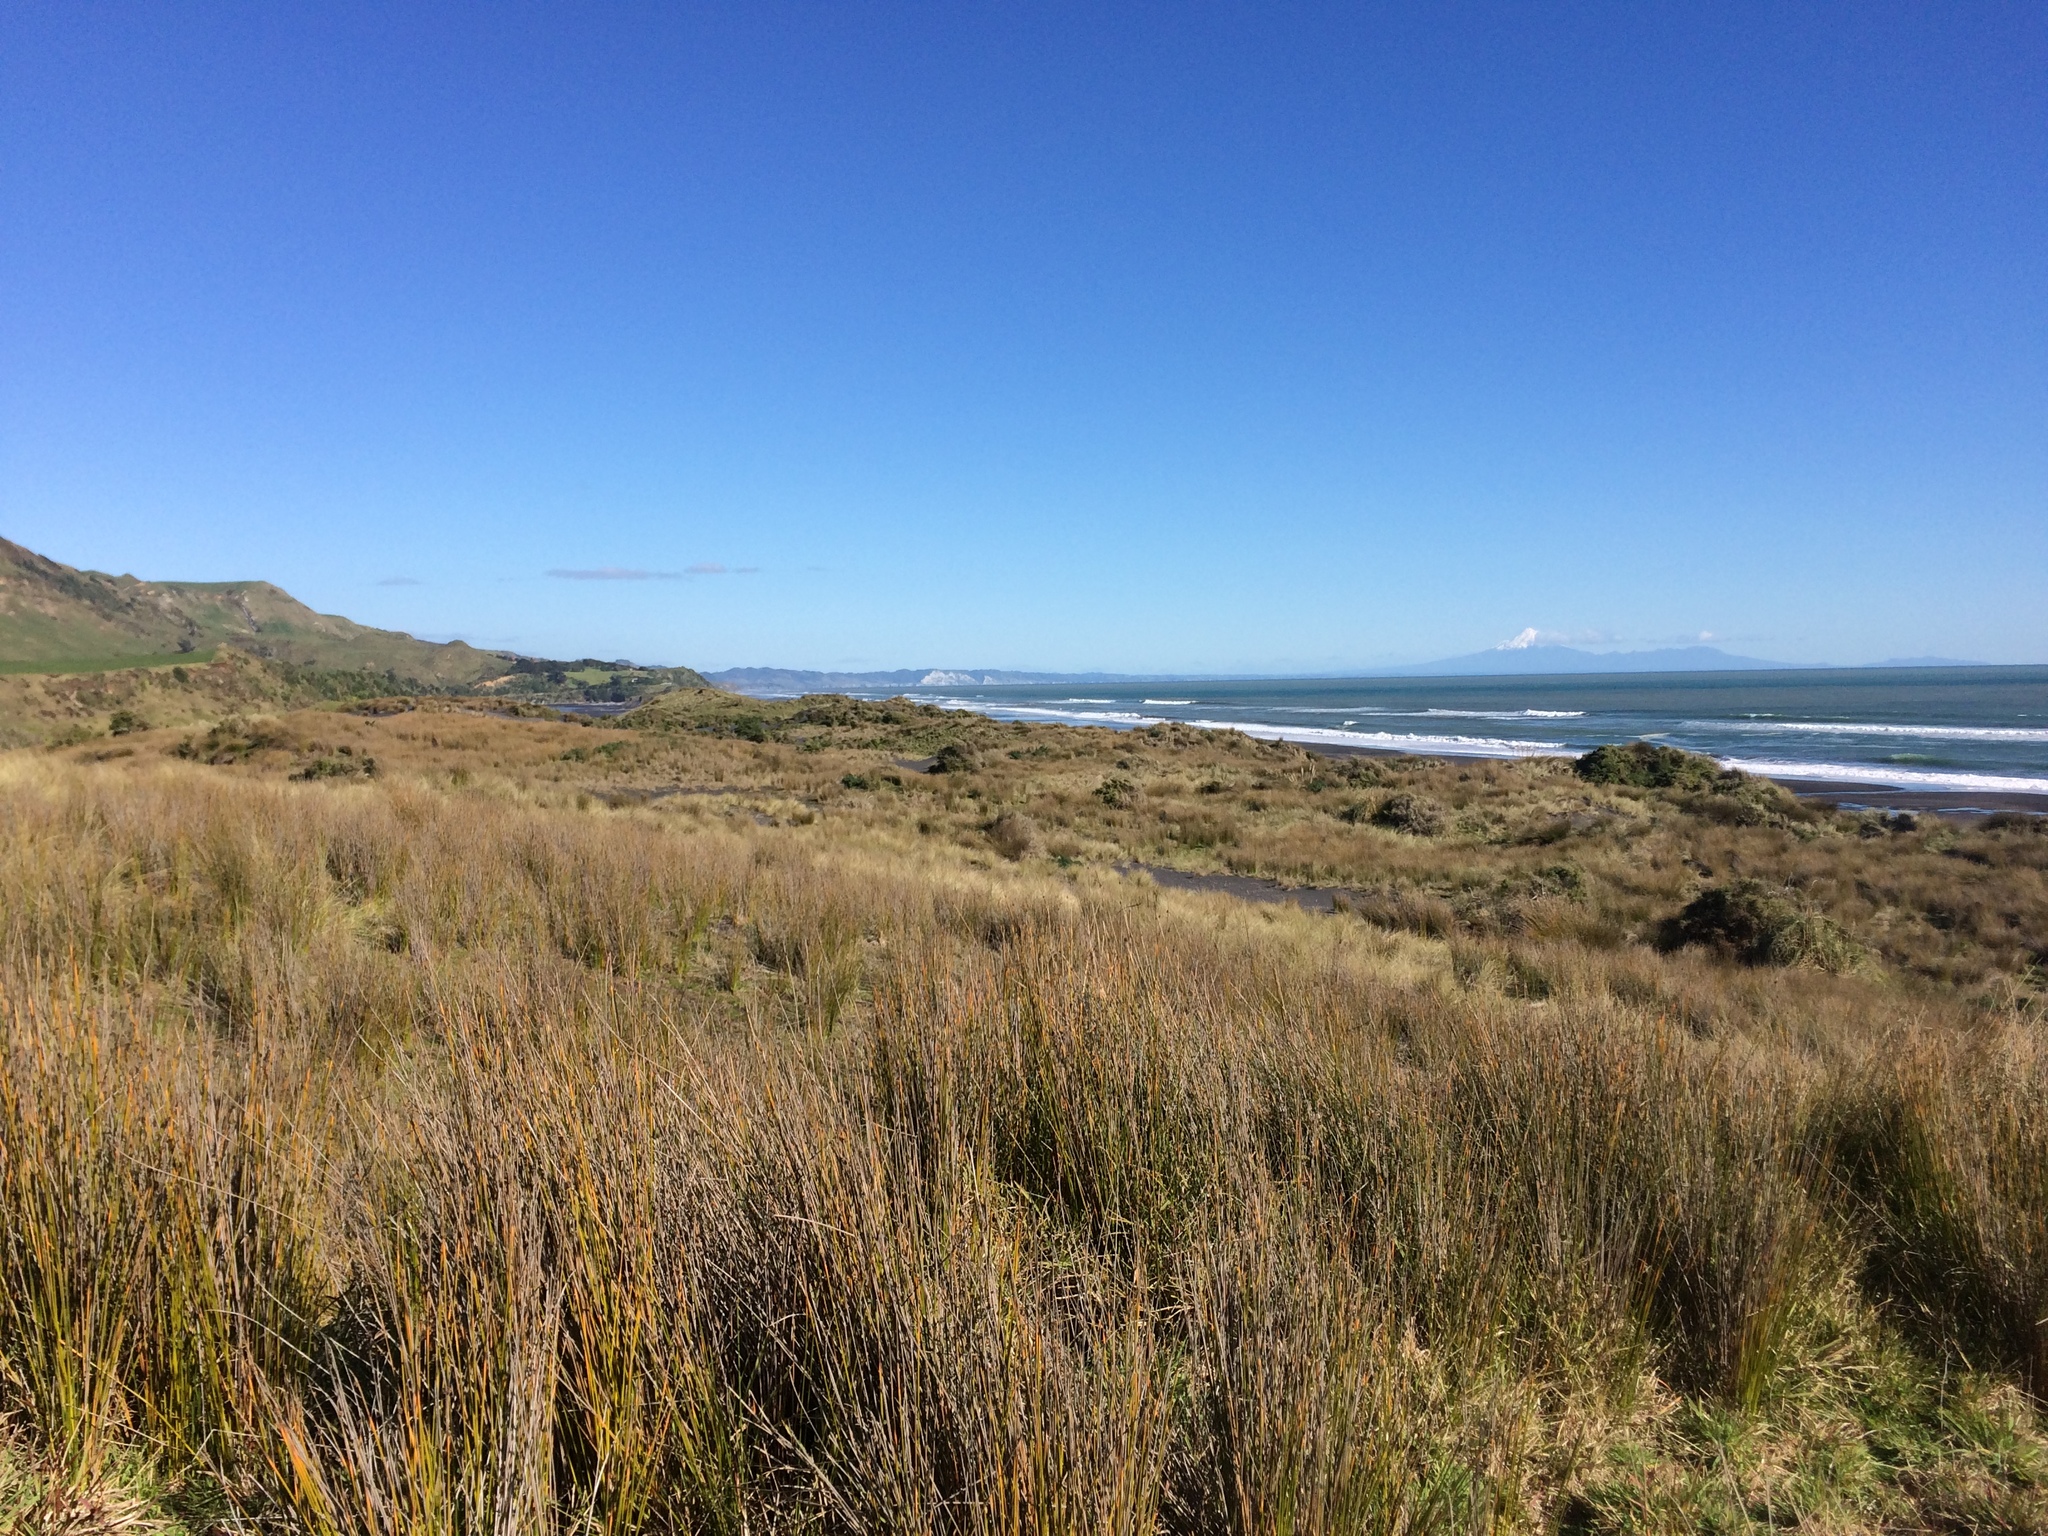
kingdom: Plantae
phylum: Tracheophyta
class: Liliopsida
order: Poales
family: Cyperaceae
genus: Ficinia
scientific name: Ficinia nodosa
